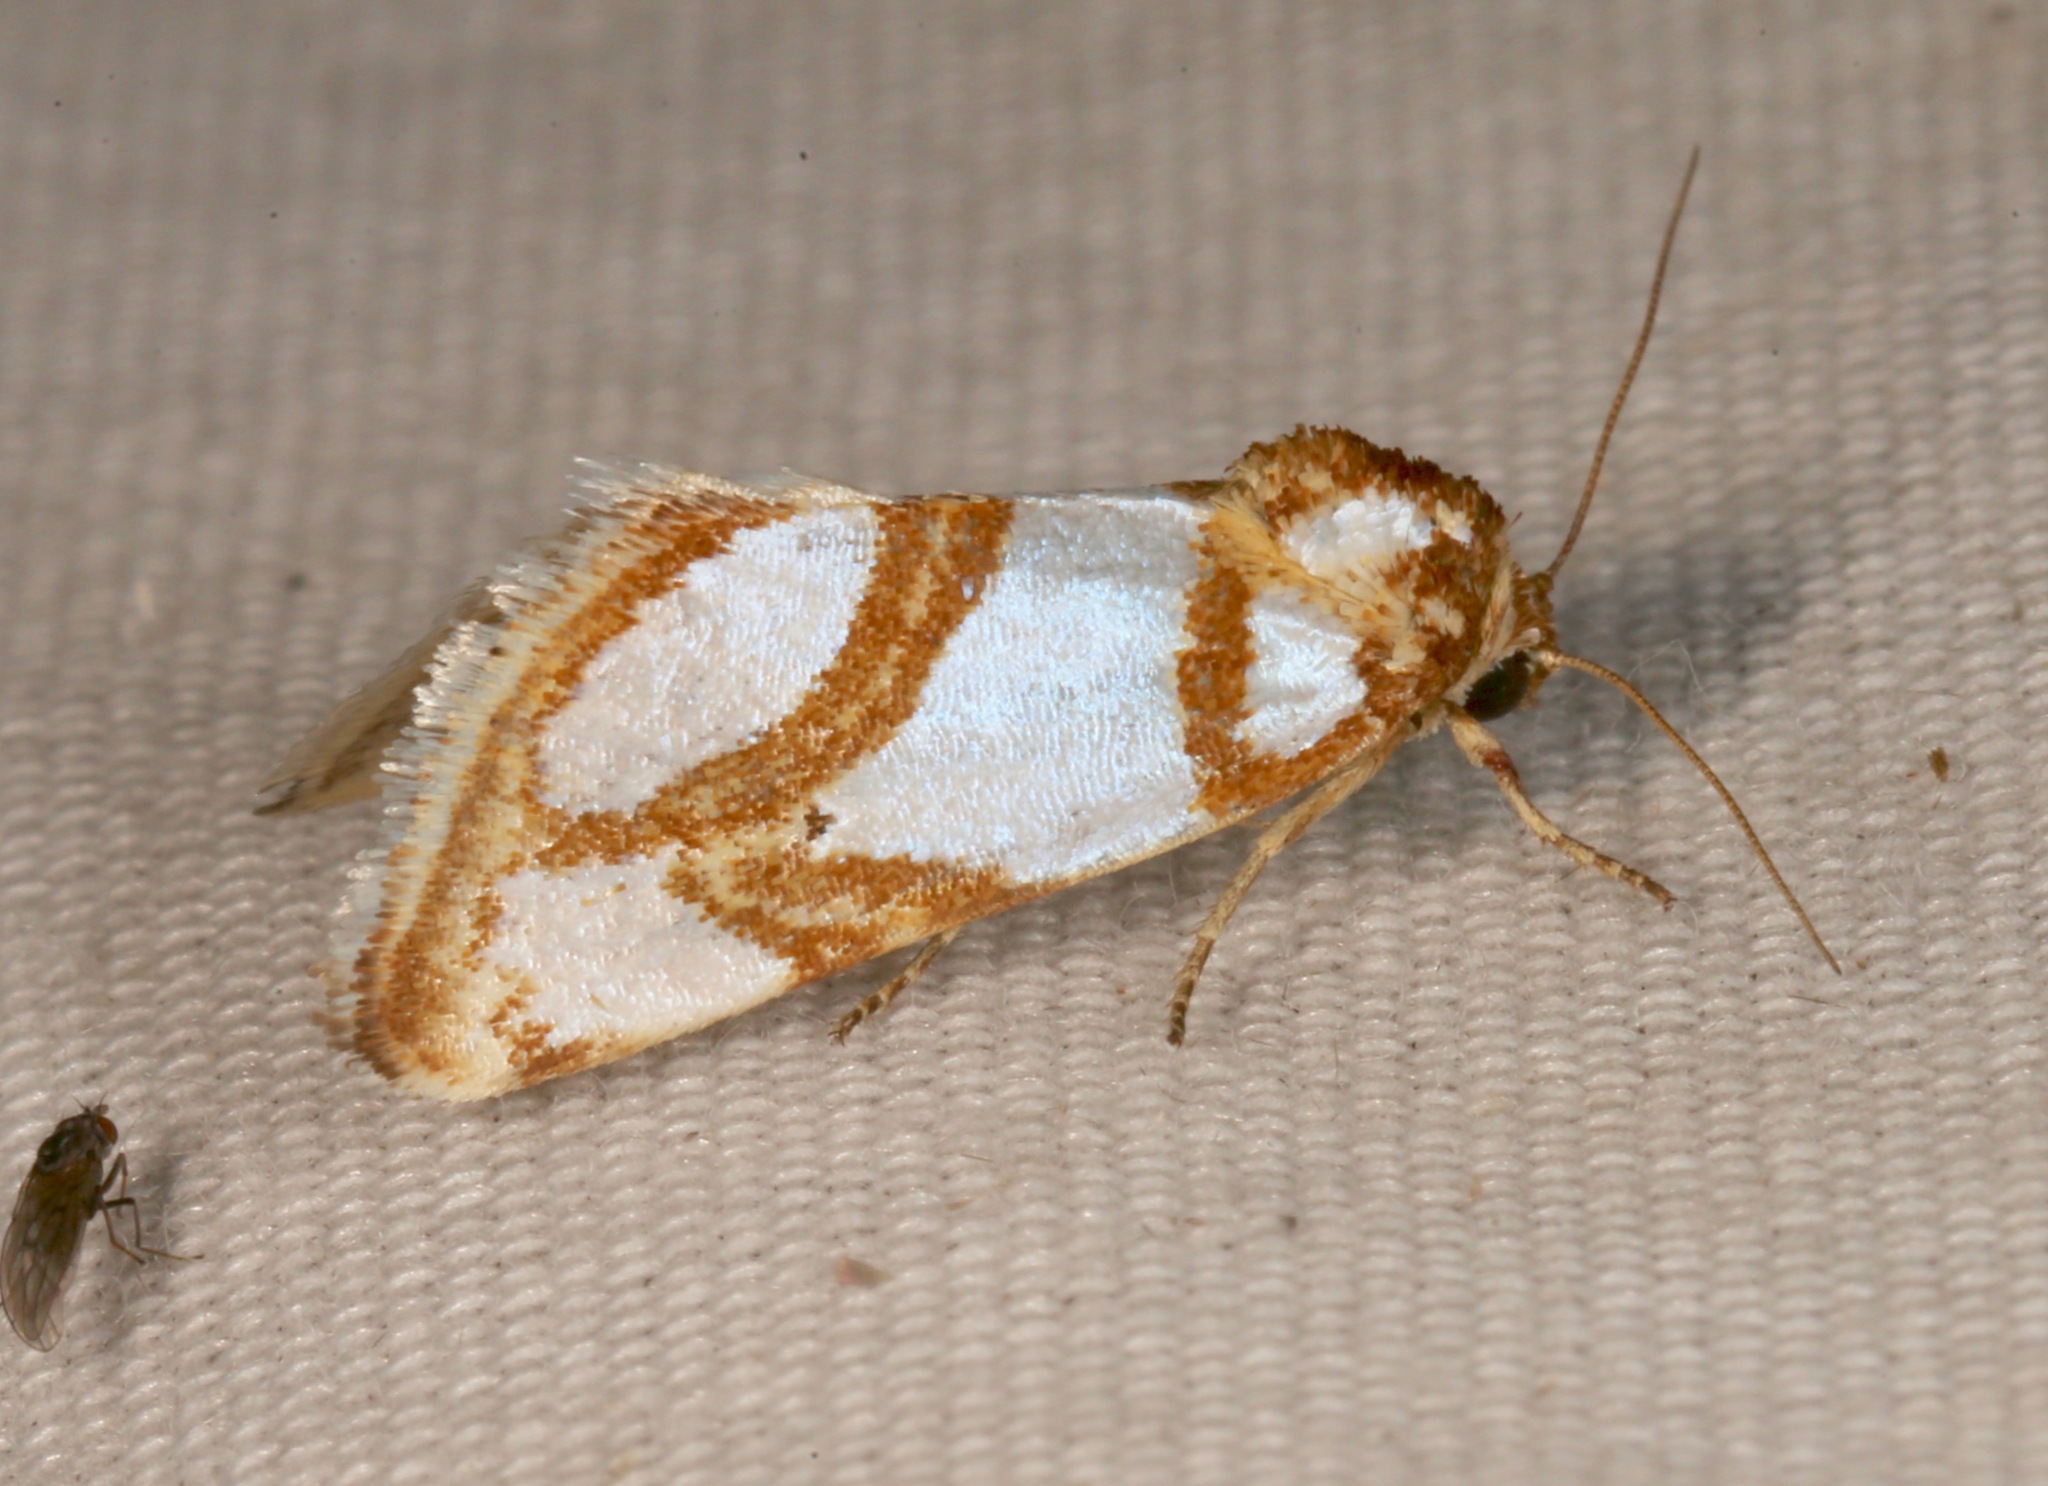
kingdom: Animalia
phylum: Arthropoda
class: Insecta
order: Lepidoptera
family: Noctuidae
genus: Argentostiria
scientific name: Argentostiria koebelei
